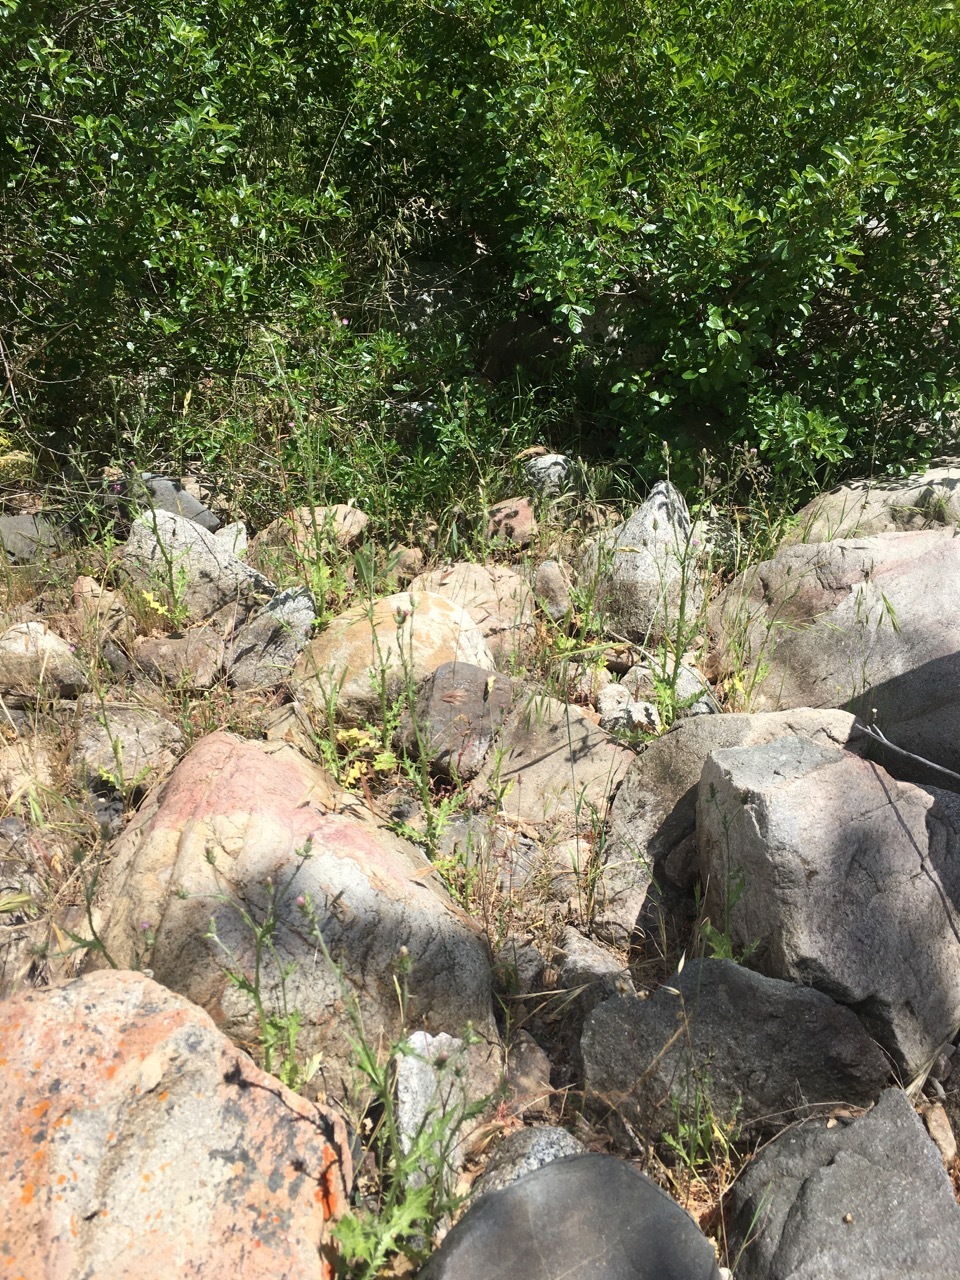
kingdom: Plantae
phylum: Tracheophyta
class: Magnoliopsida
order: Asterales
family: Asteraceae
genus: Carduus
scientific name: Carduus pycnocephalus
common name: Plymouth thistle
